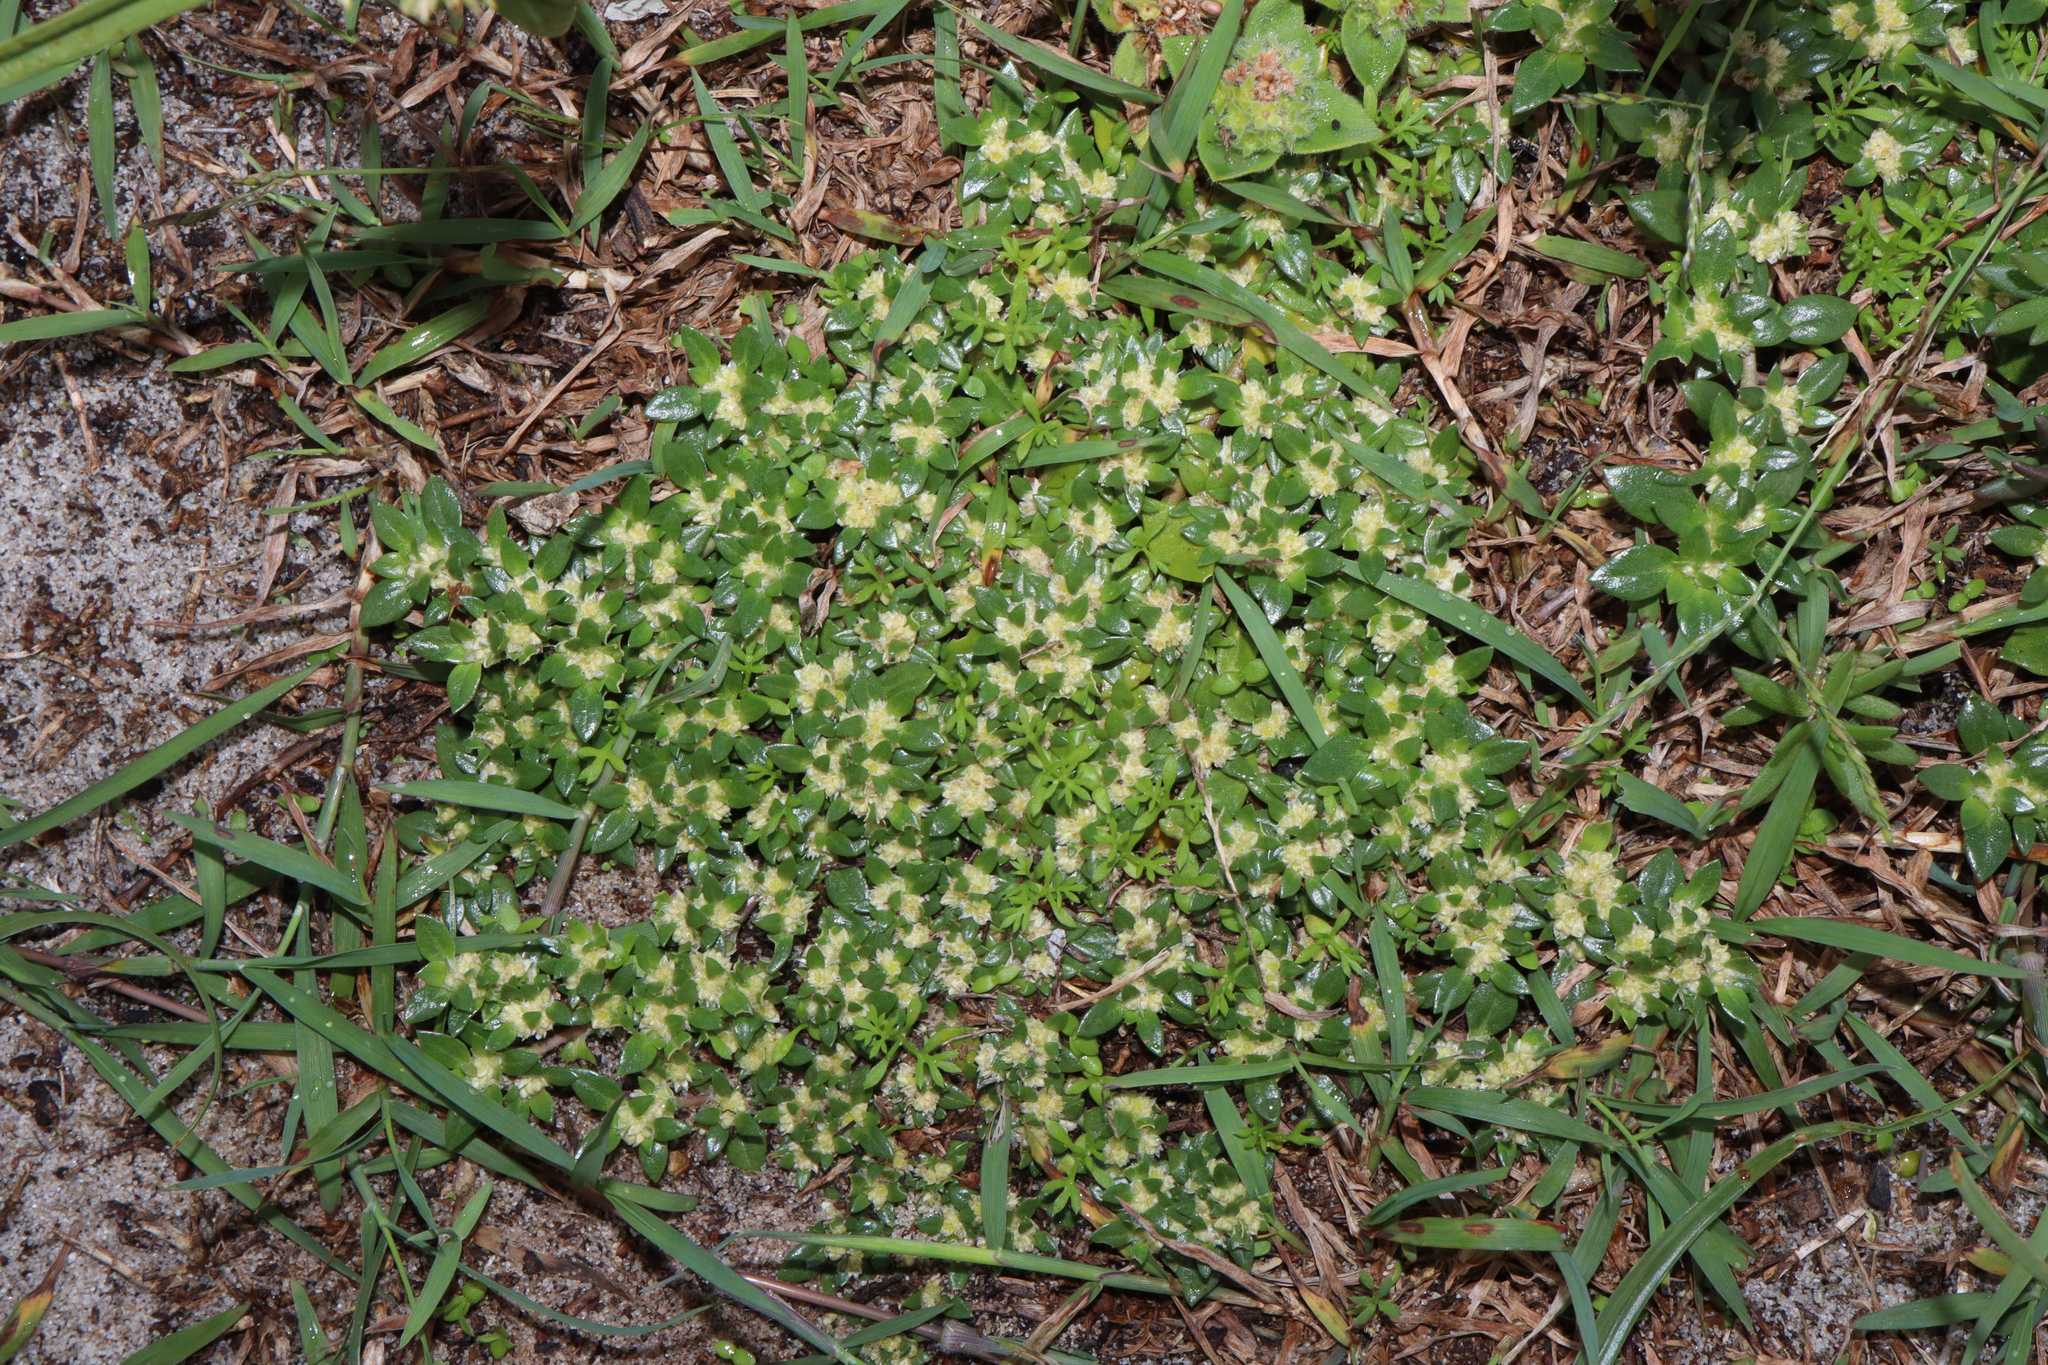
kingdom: Plantae
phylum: Tracheophyta
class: Magnoliopsida
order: Caryophyllales
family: Amaranthaceae
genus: Guilleminea
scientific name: Guilleminea densa
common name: Small matweed
